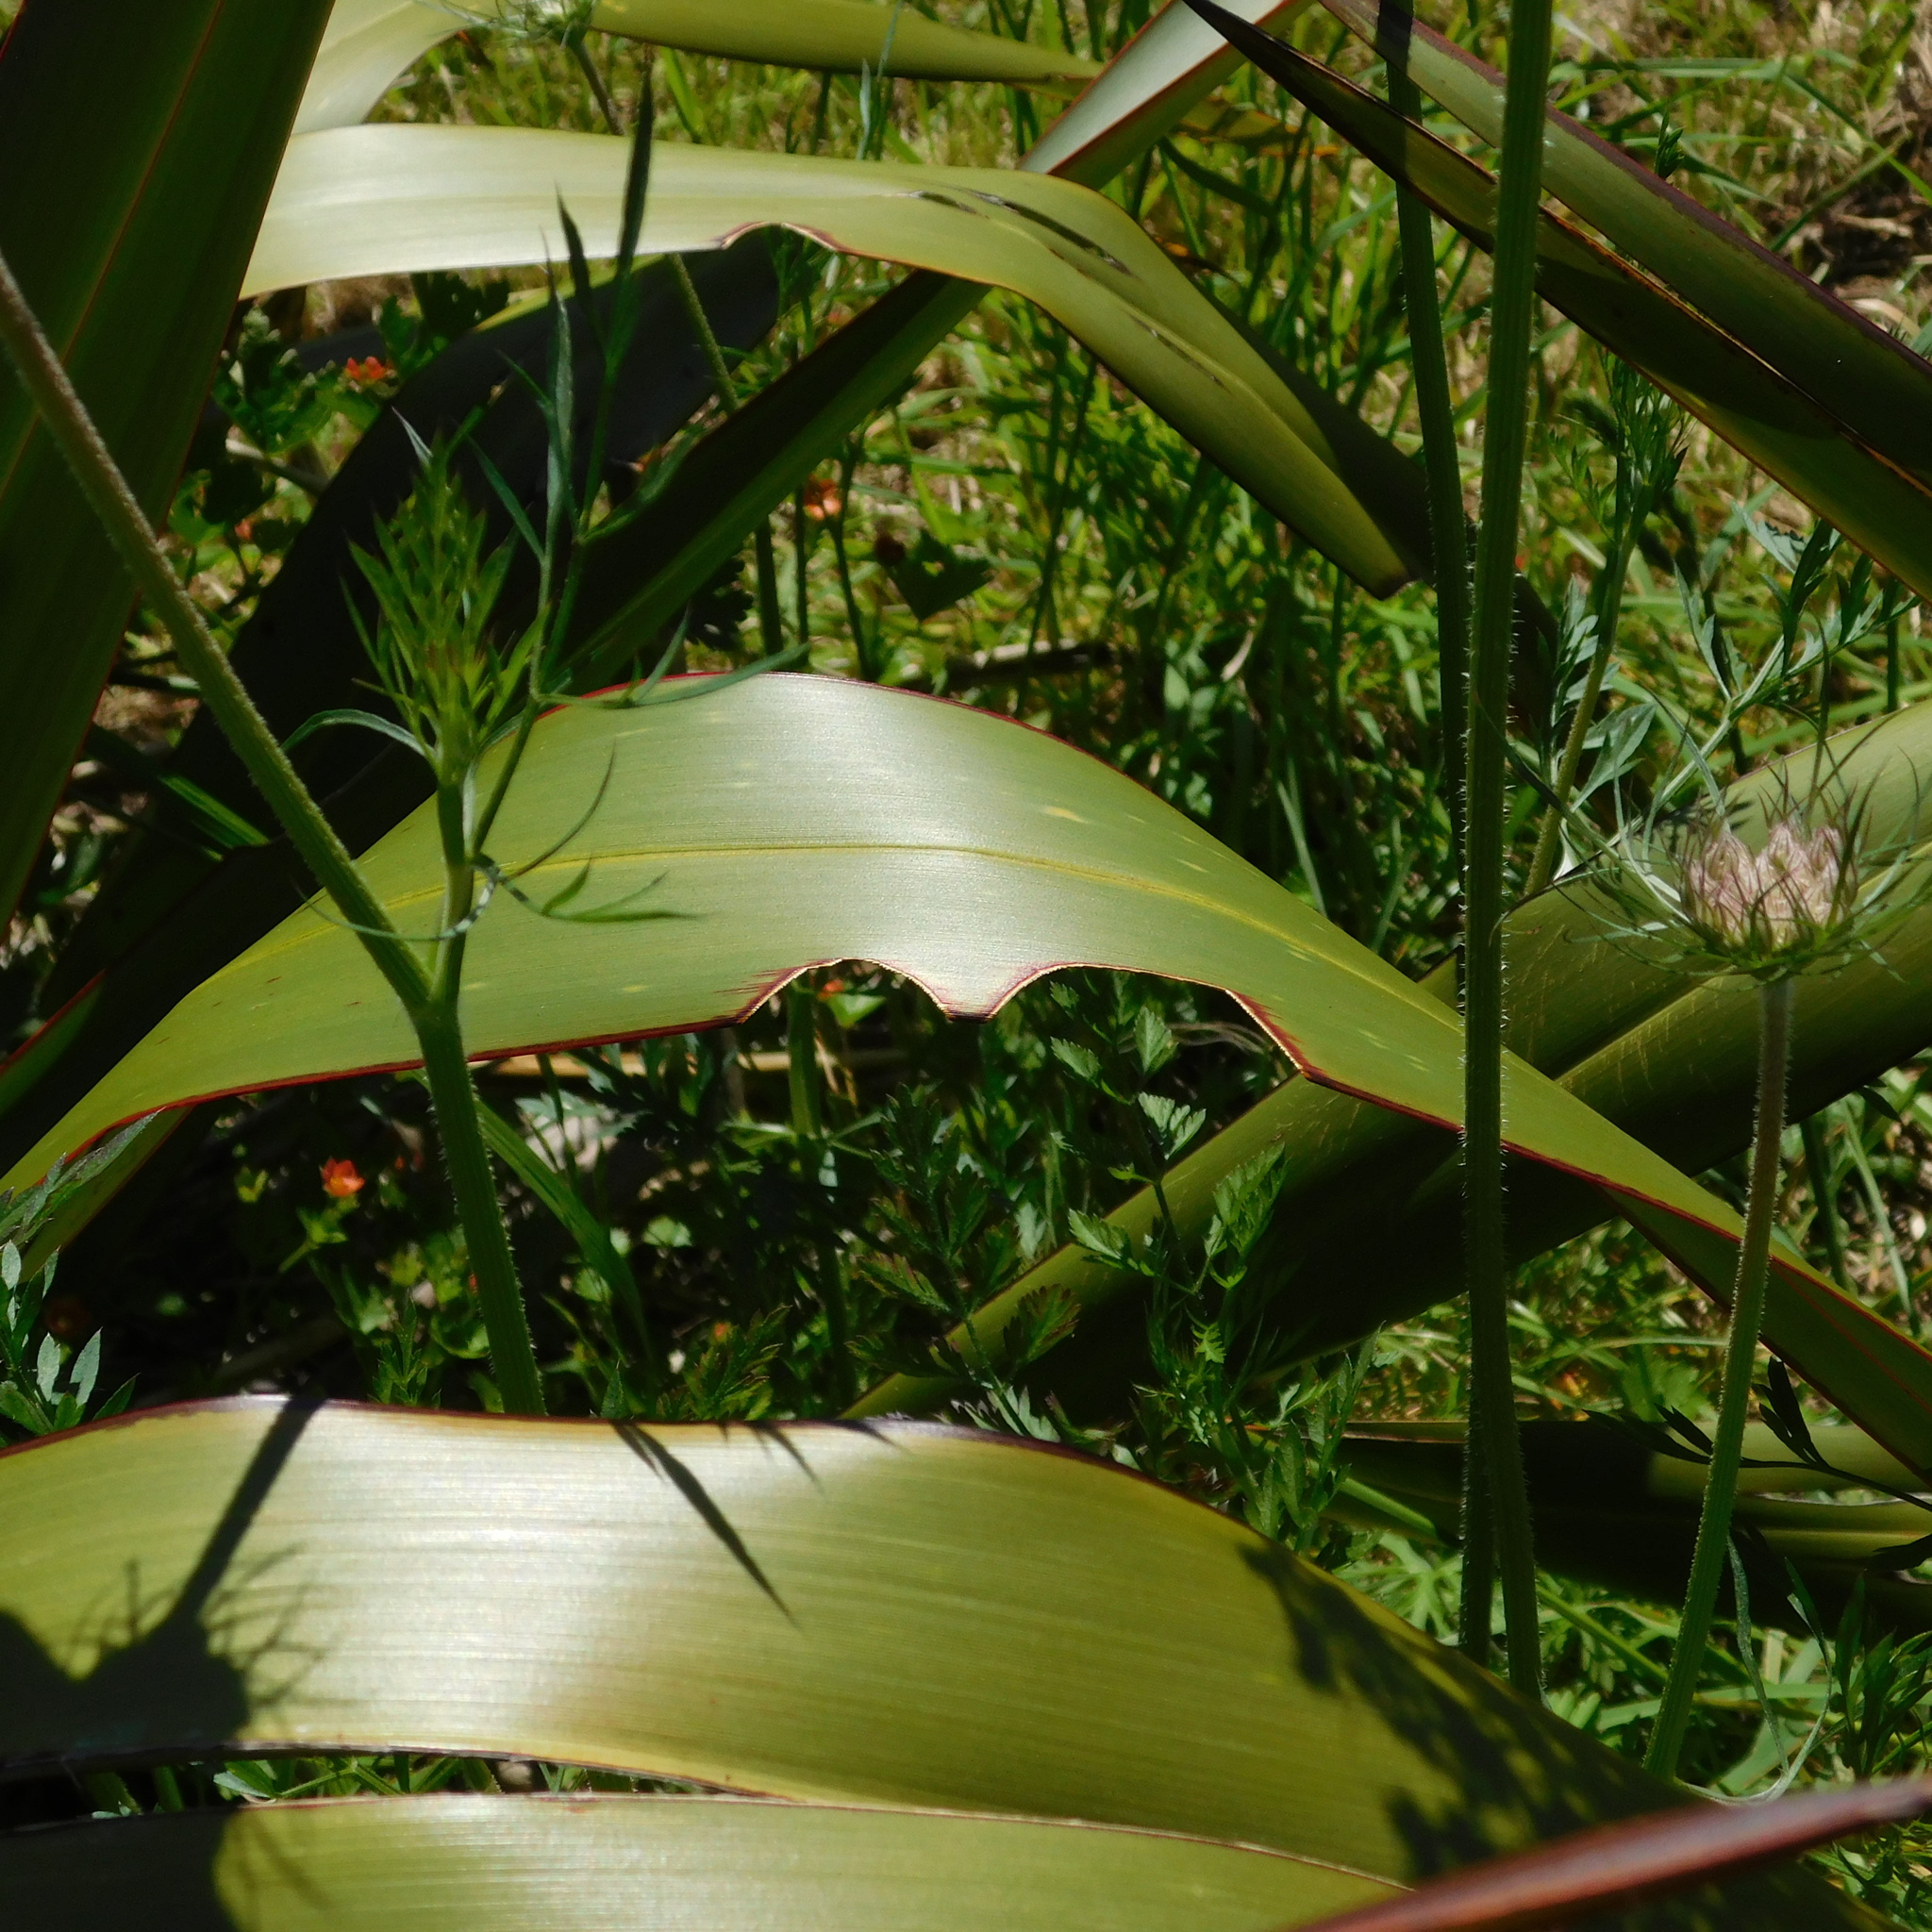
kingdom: Animalia
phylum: Arthropoda
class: Insecta
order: Lepidoptera
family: Noctuidae
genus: Ichneutica
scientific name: Ichneutica
